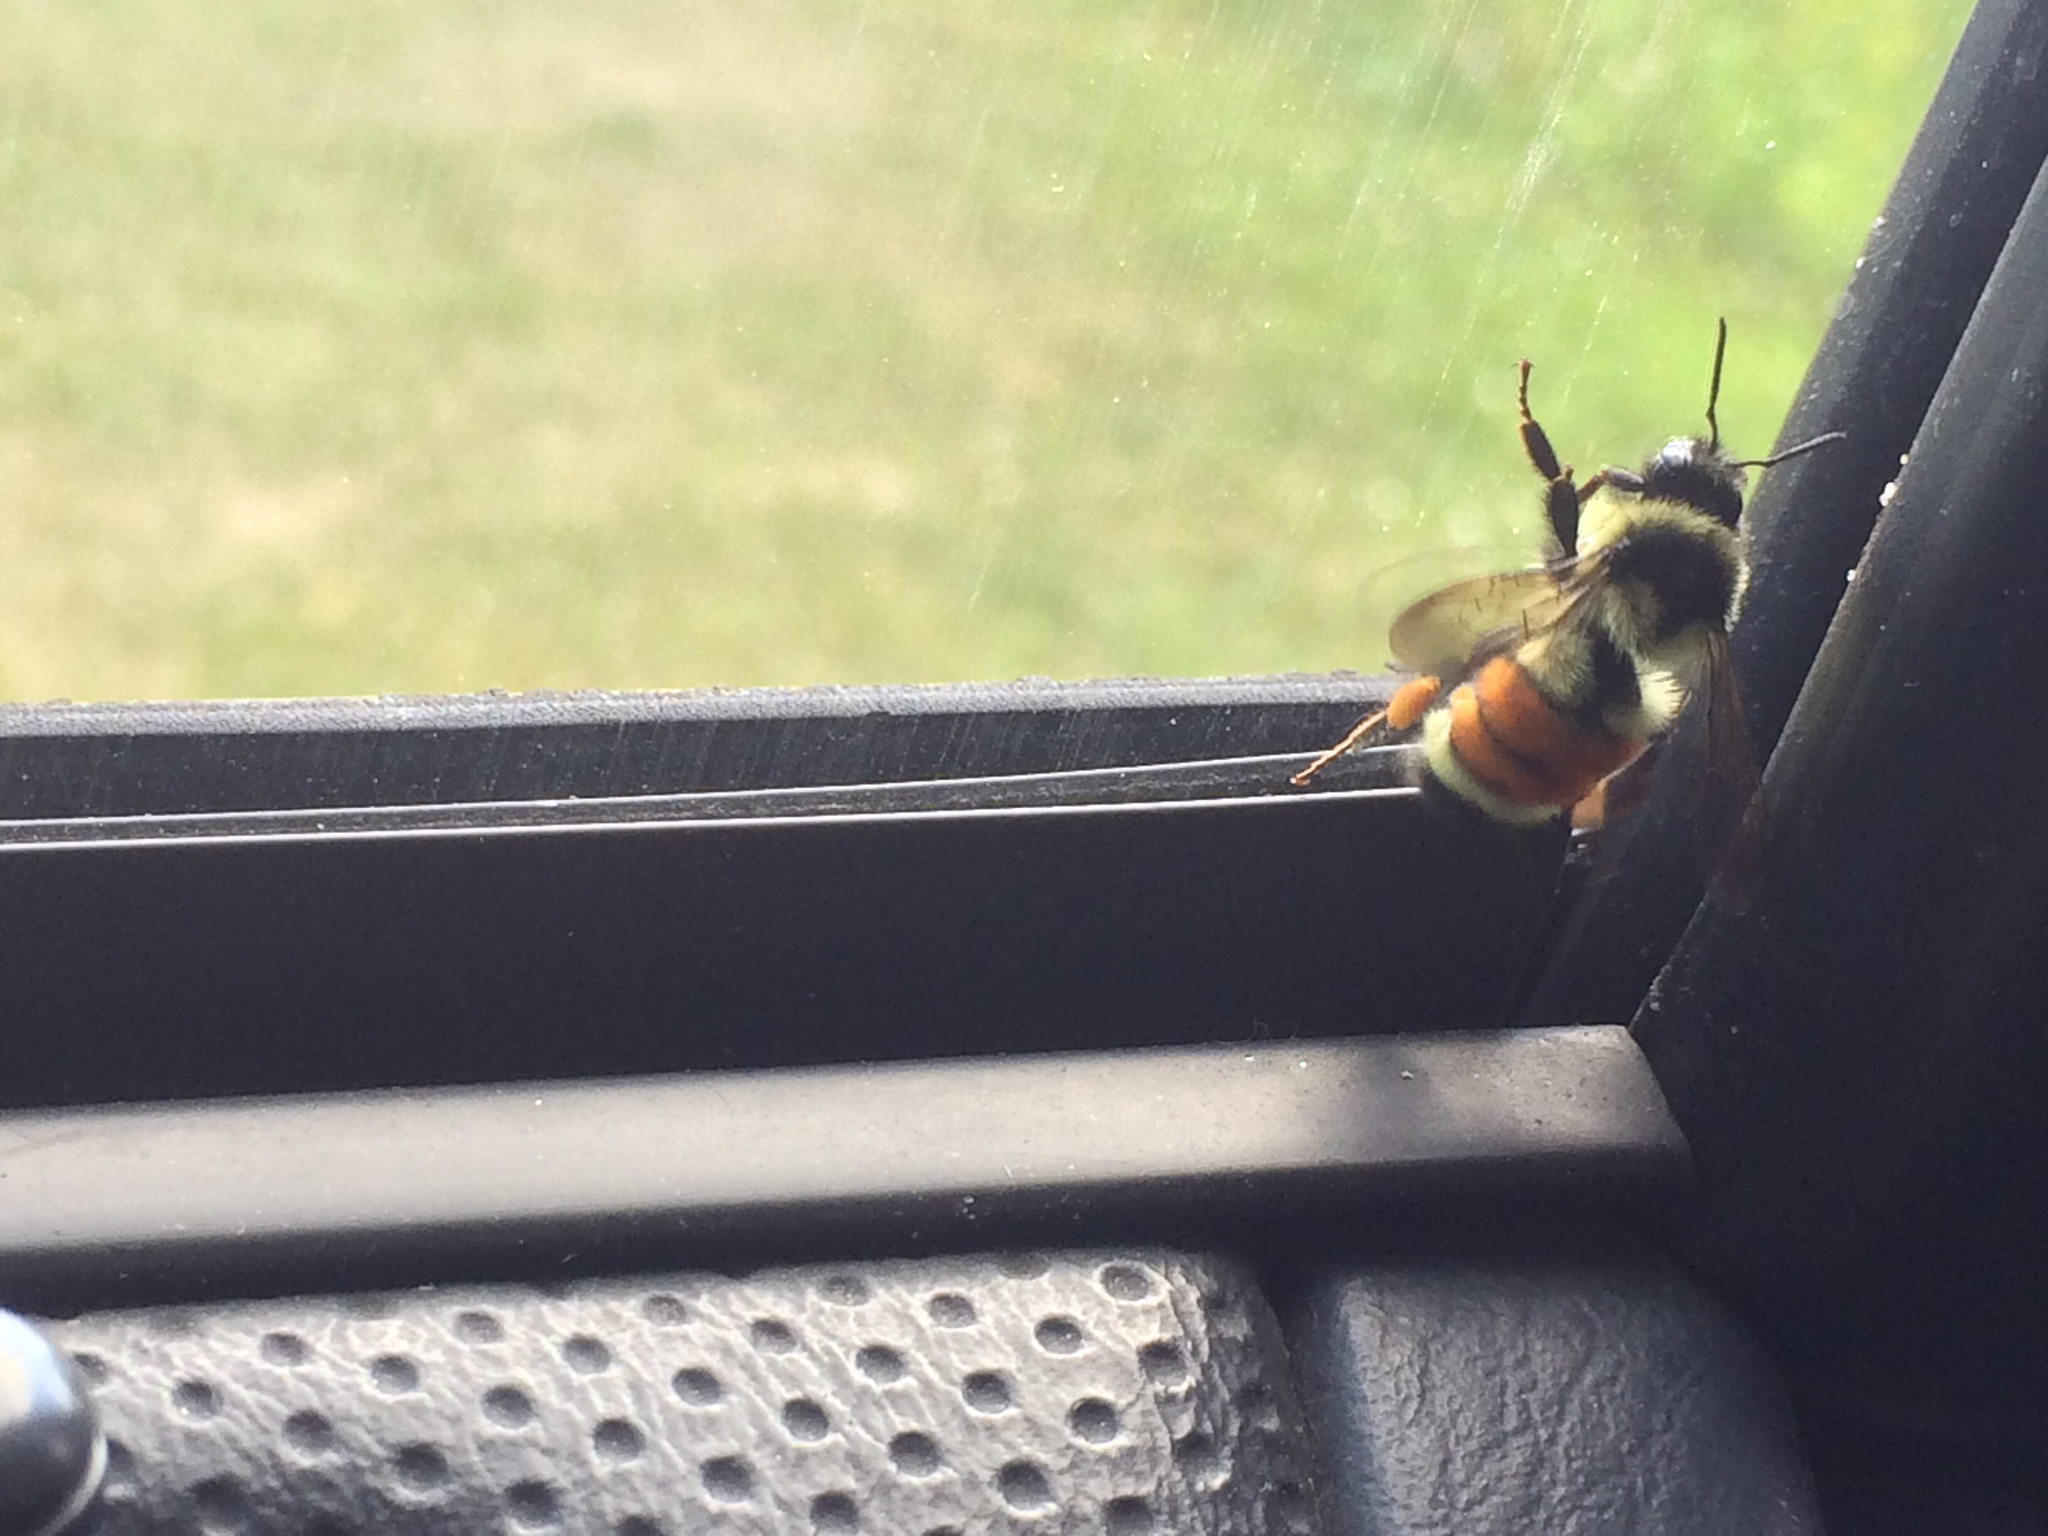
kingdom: Animalia
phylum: Arthropoda
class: Insecta
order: Hymenoptera
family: Apidae
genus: Bombus
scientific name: Bombus ternarius
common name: Tri-colored bumble bee
